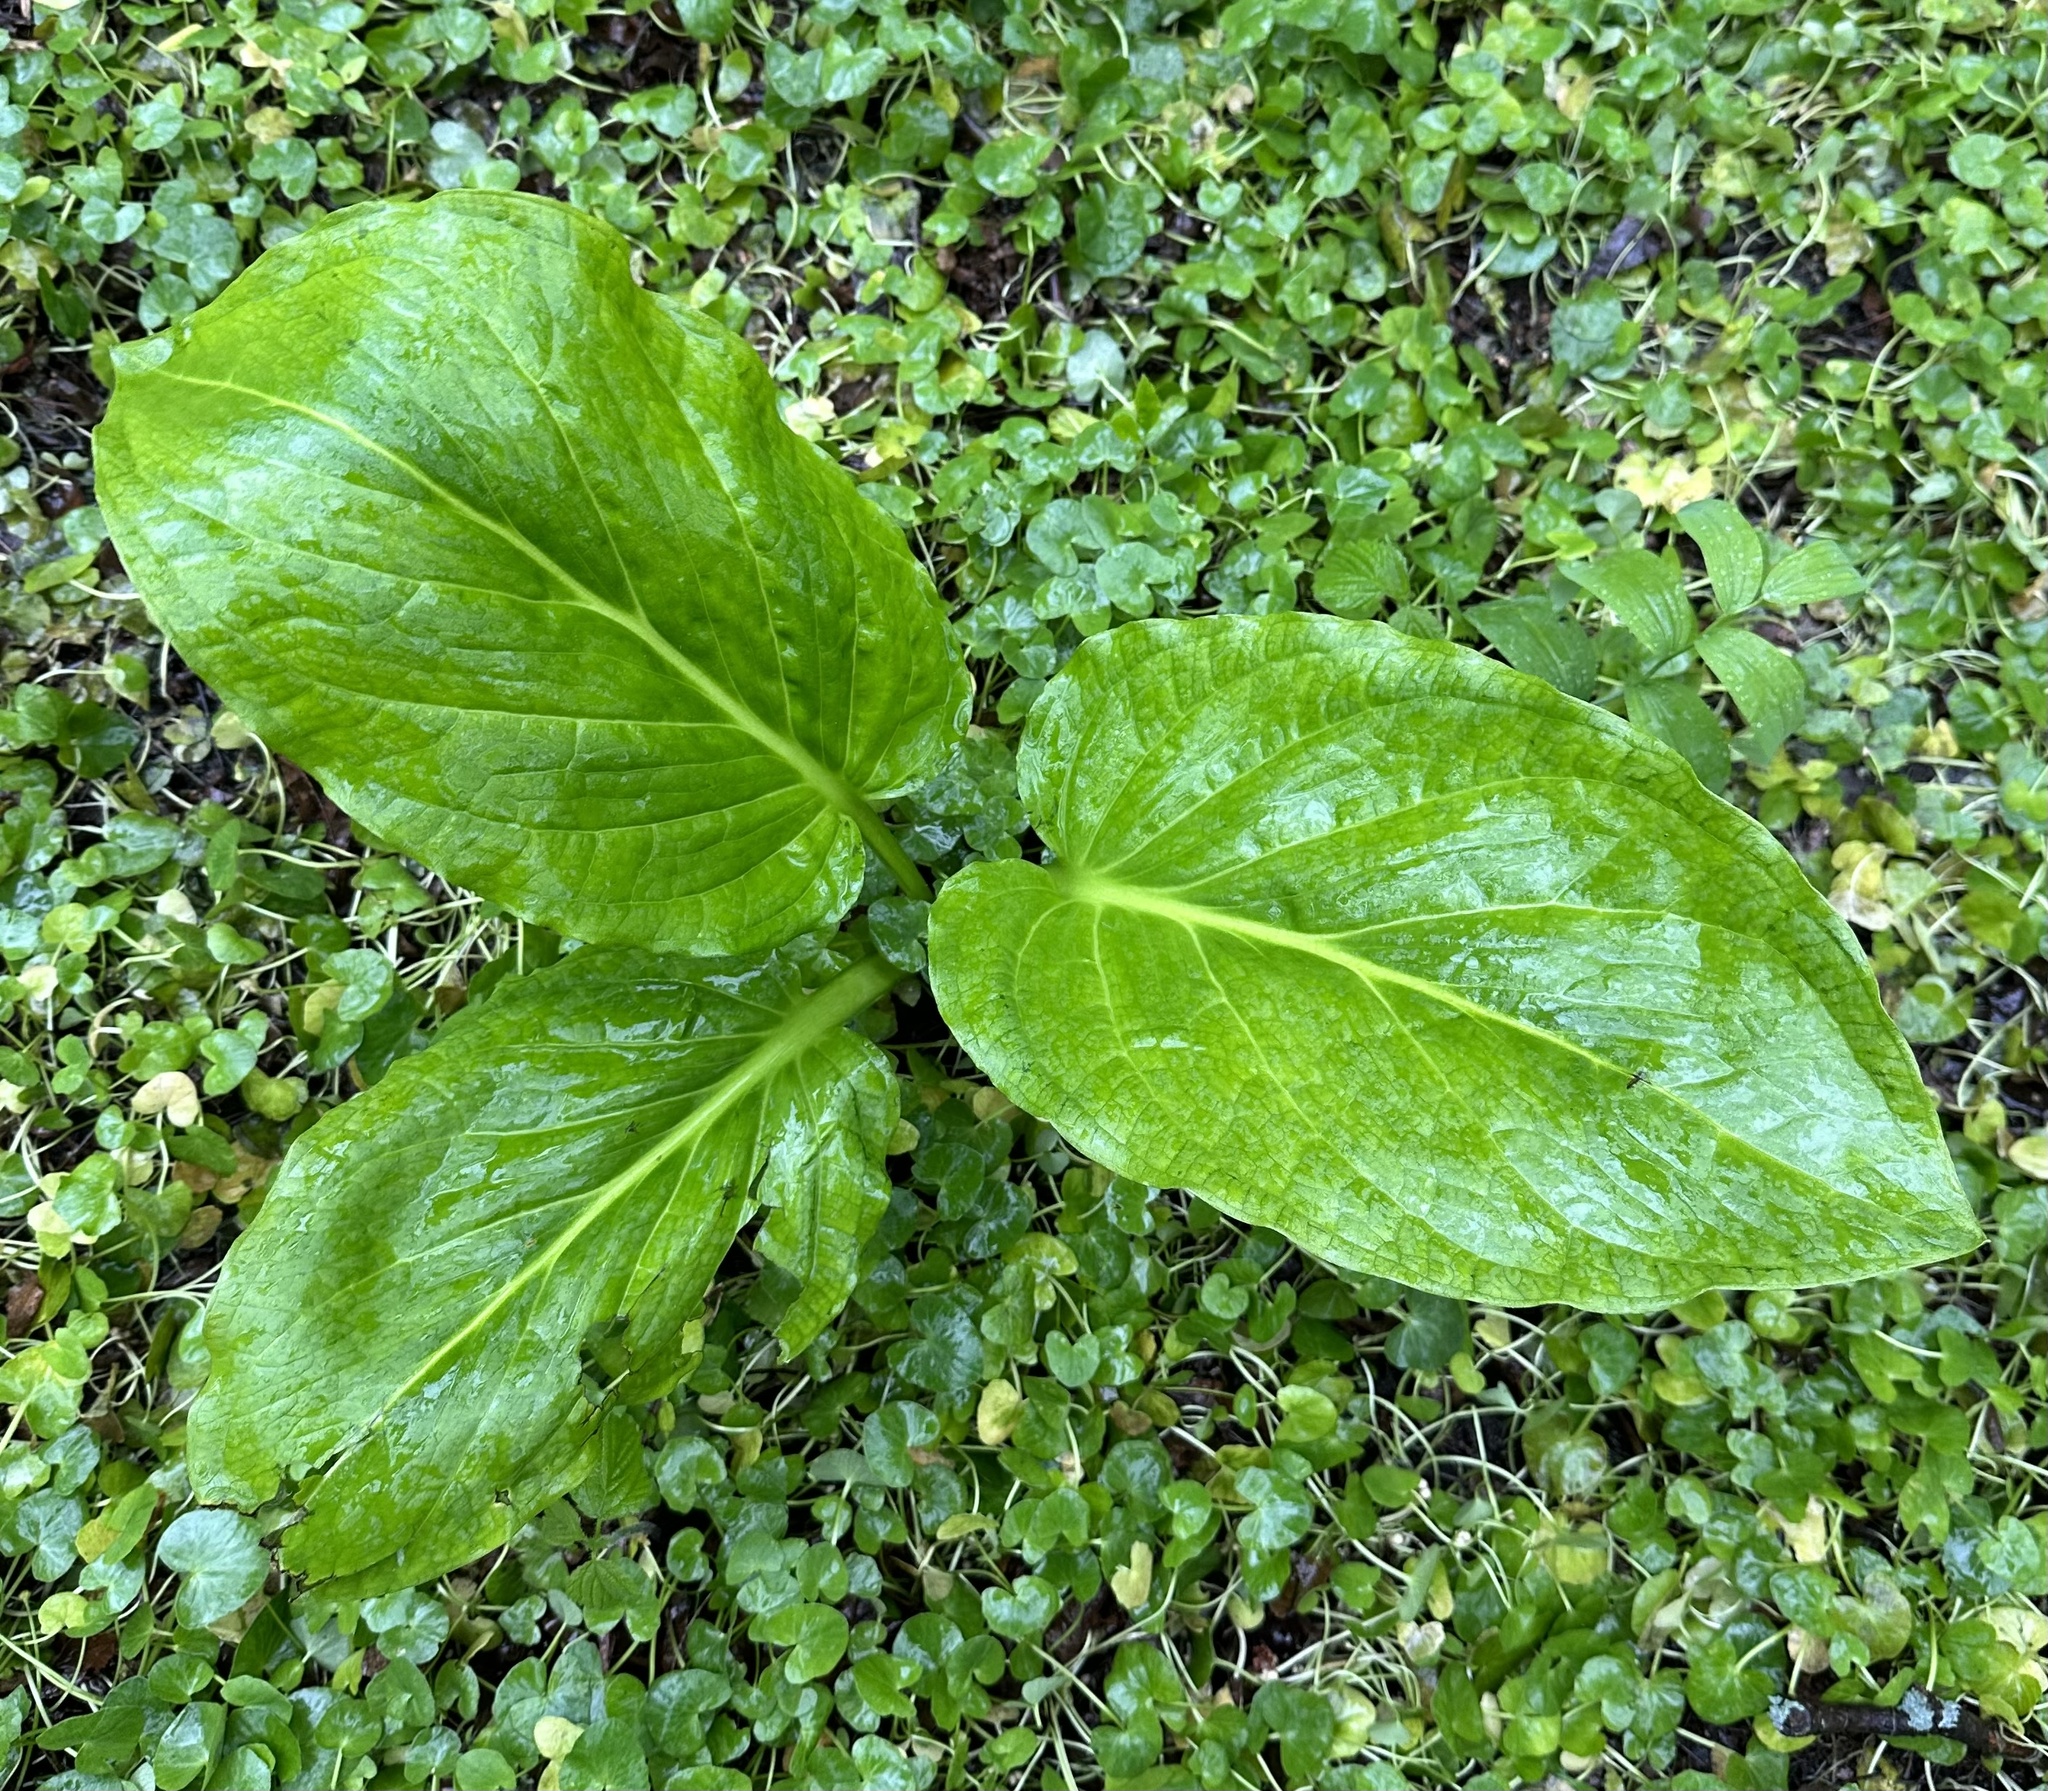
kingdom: Plantae
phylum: Tracheophyta
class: Liliopsida
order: Alismatales
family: Araceae
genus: Symplocarpus
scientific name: Symplocarpus foetidus
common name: Eastern skunk cabbage
